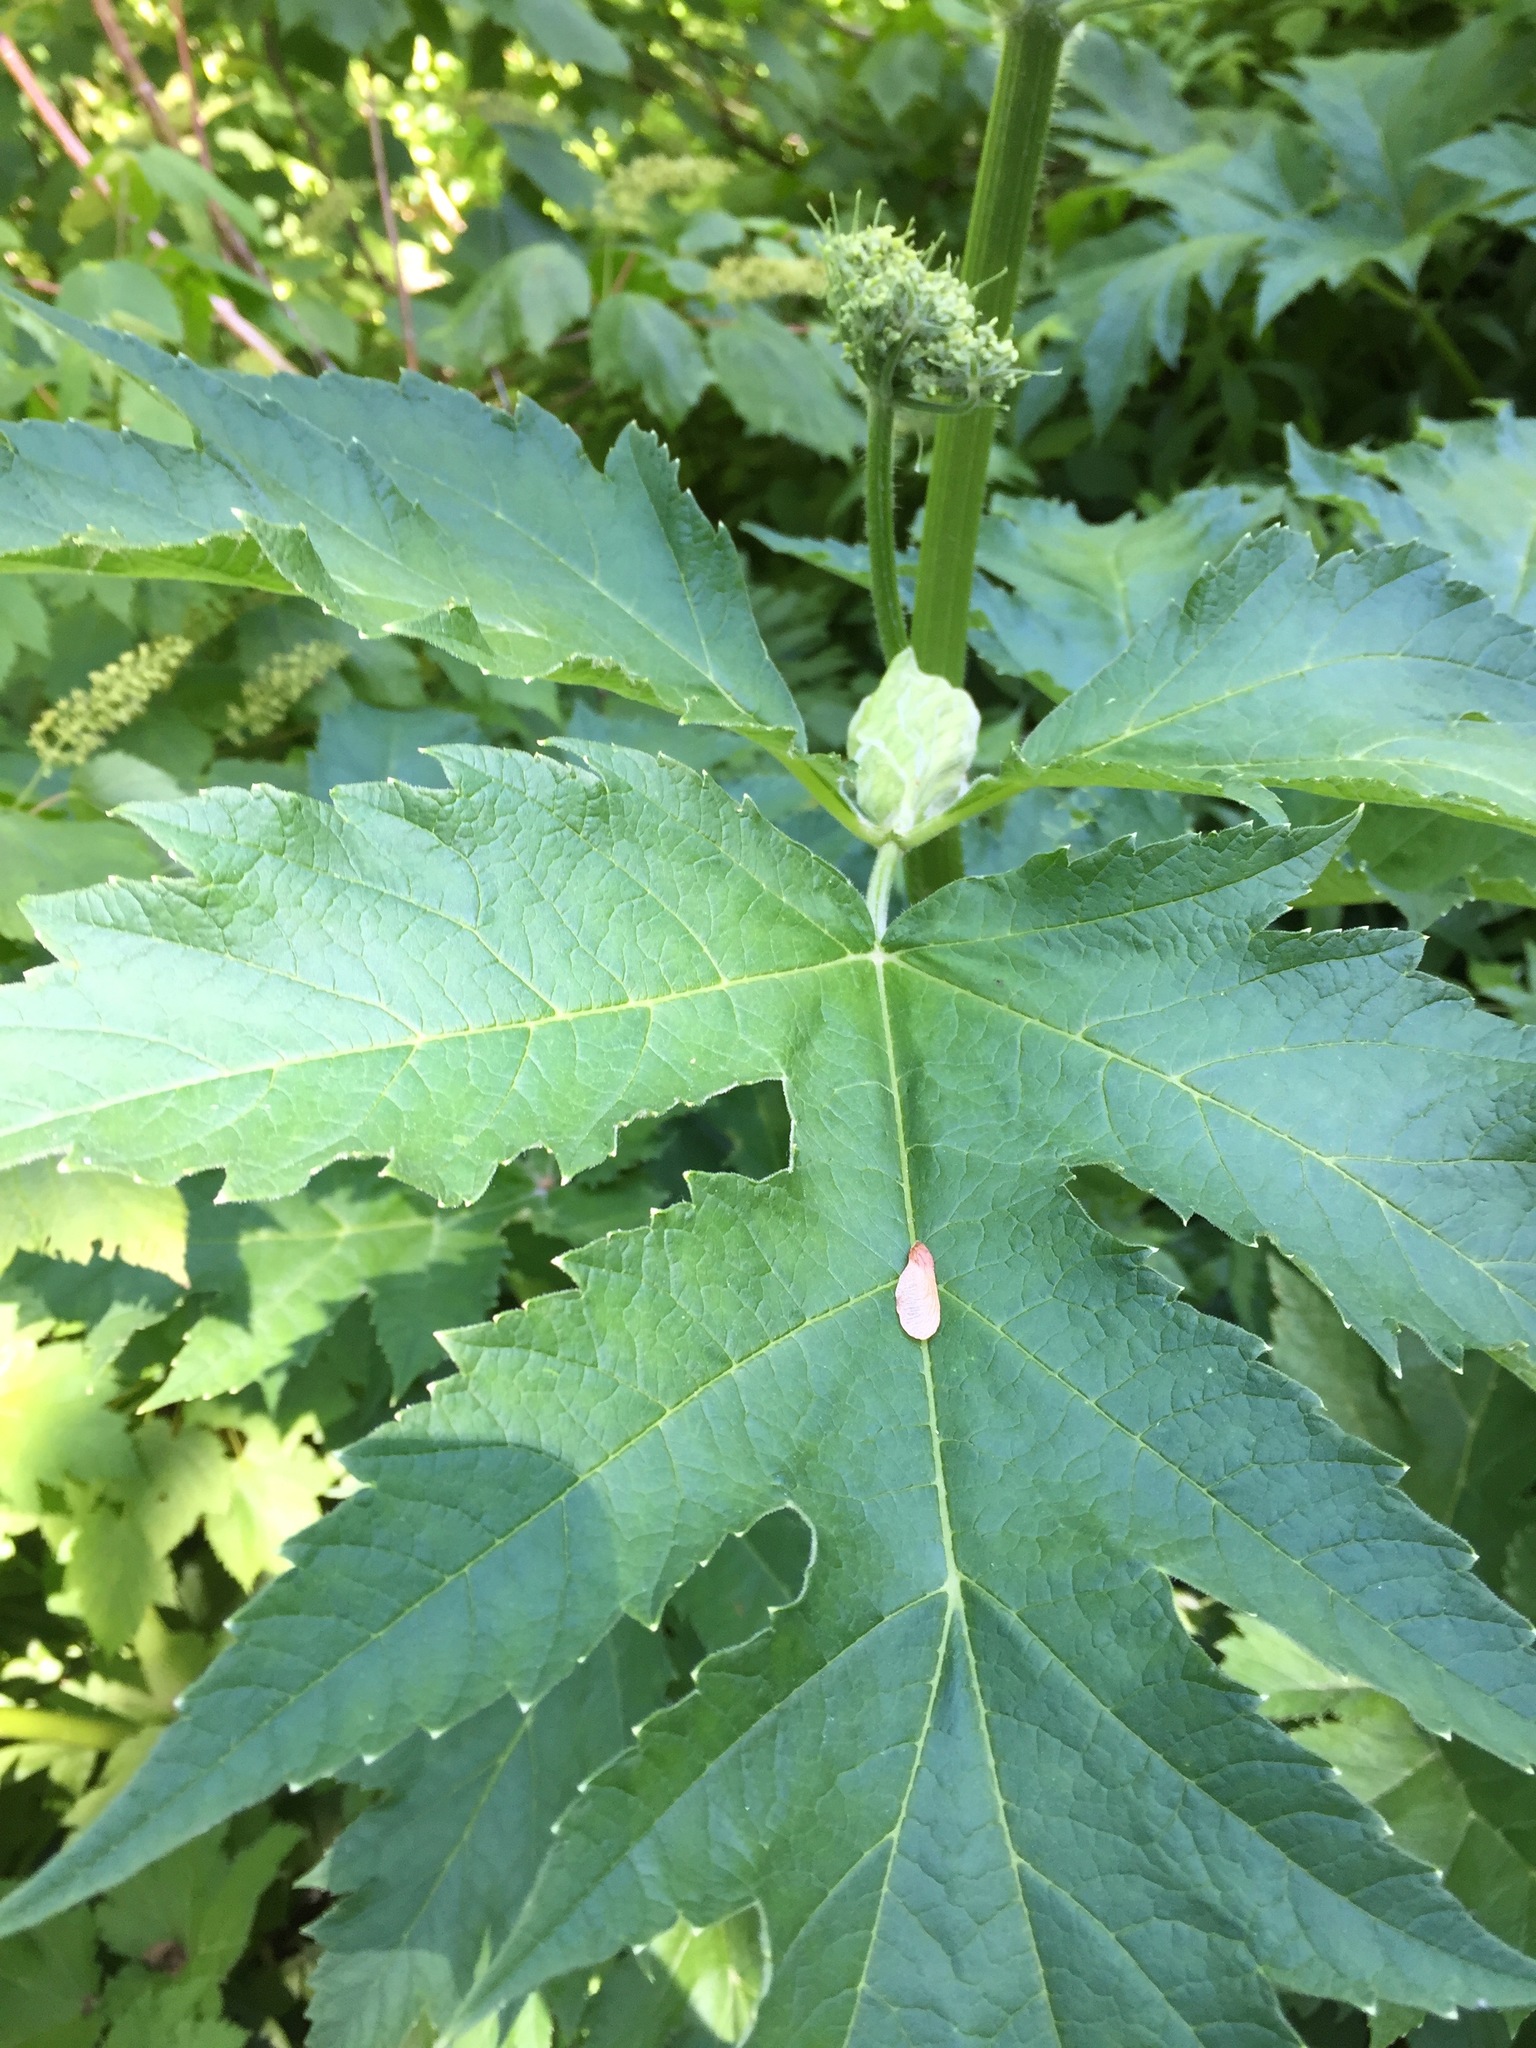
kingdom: Plantae
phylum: Tracheophyta
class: Magnoliopsida
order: Apiales
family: Apiaceae
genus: Heracleum
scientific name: Heracleum maximum
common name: American cow parsnip
